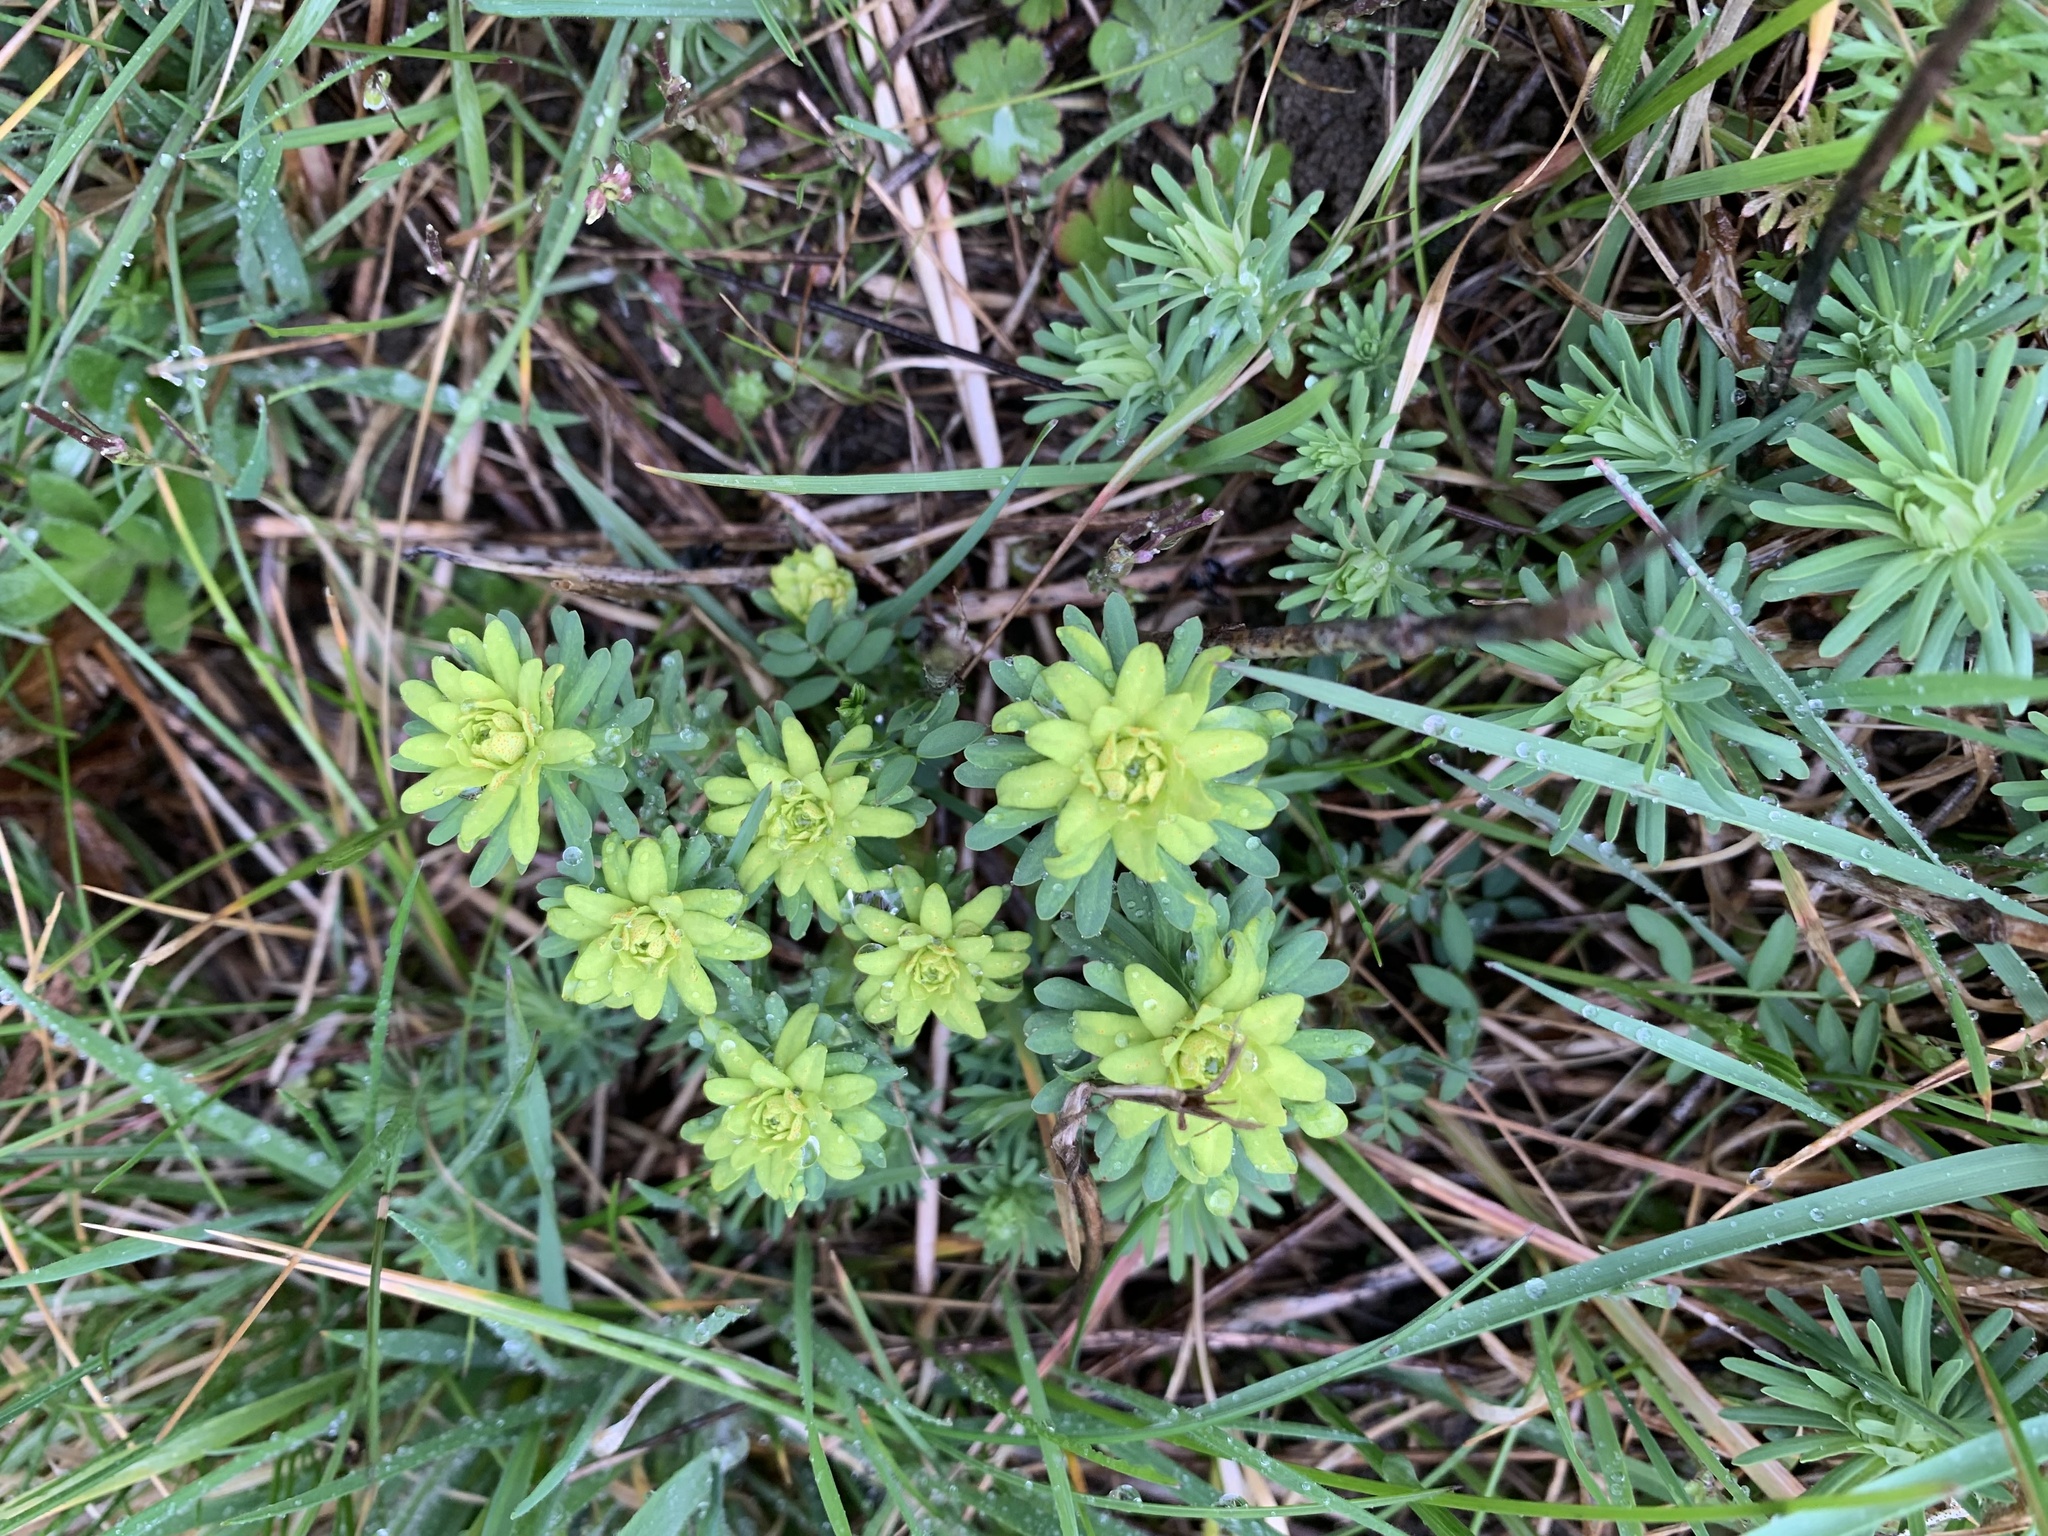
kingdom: Plantae
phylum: Tracheophyta
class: Magnoliopsida
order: Malpighiales
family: Euphorbiaceae
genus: Euphorbia
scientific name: Euphorbia cyparissias
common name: Cypress spurge
